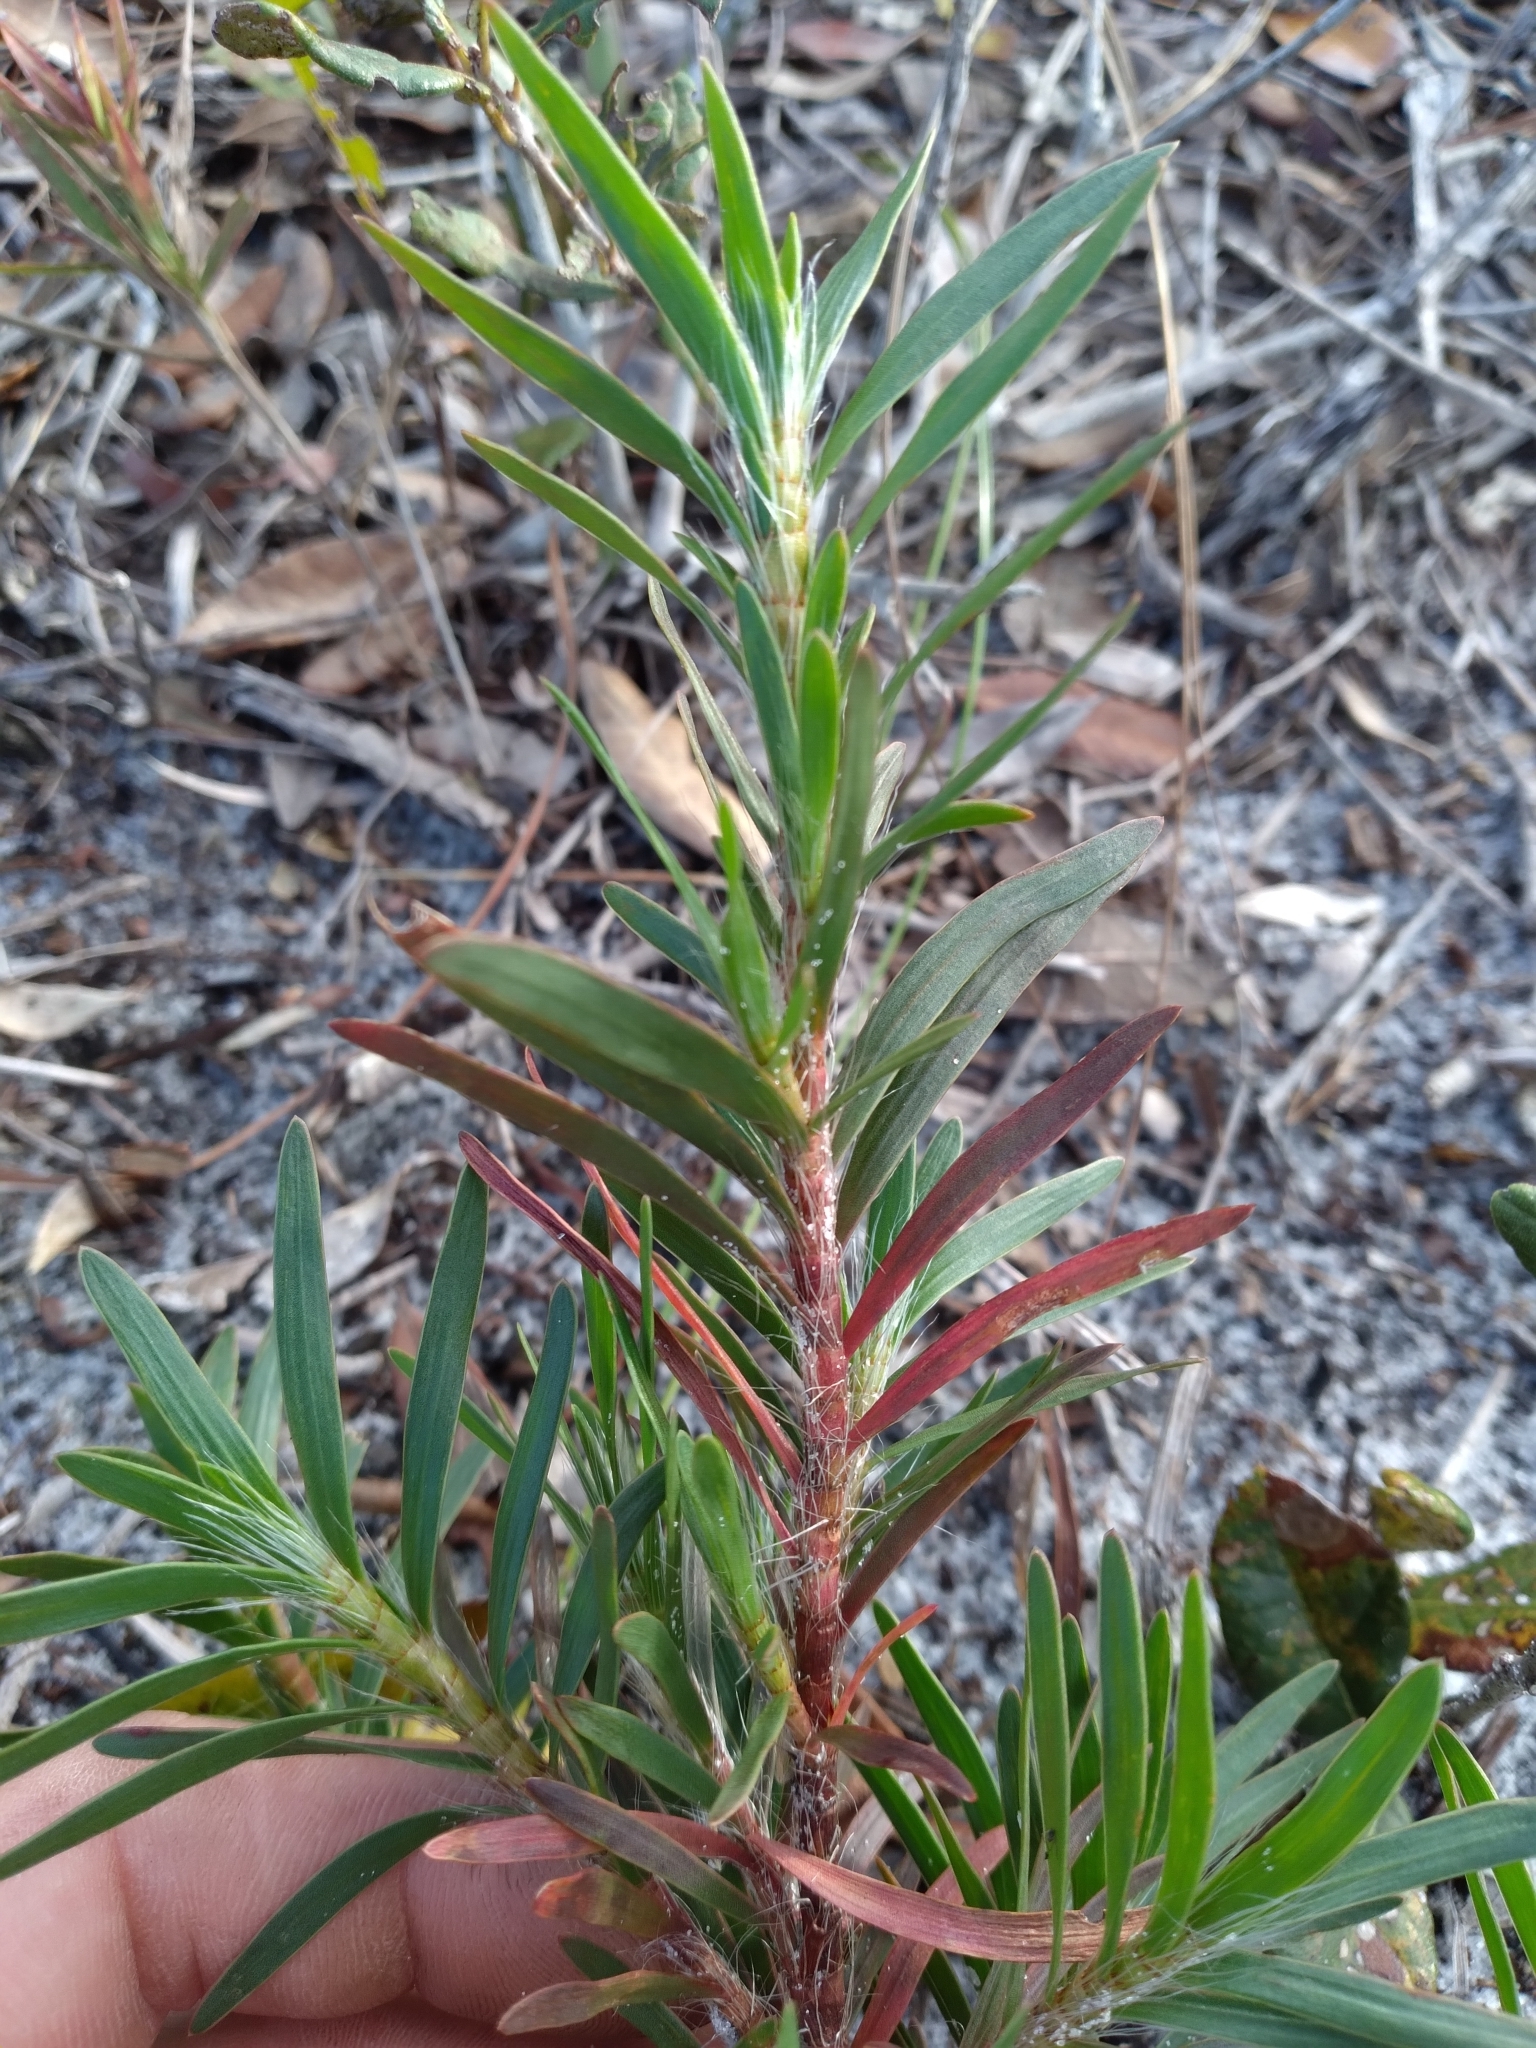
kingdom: Plantae
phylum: Tracheophyta
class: Magnoliopsida
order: Caryophyllales
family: Polygonaceae
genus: Polygonella
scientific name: Polygonella robusta
